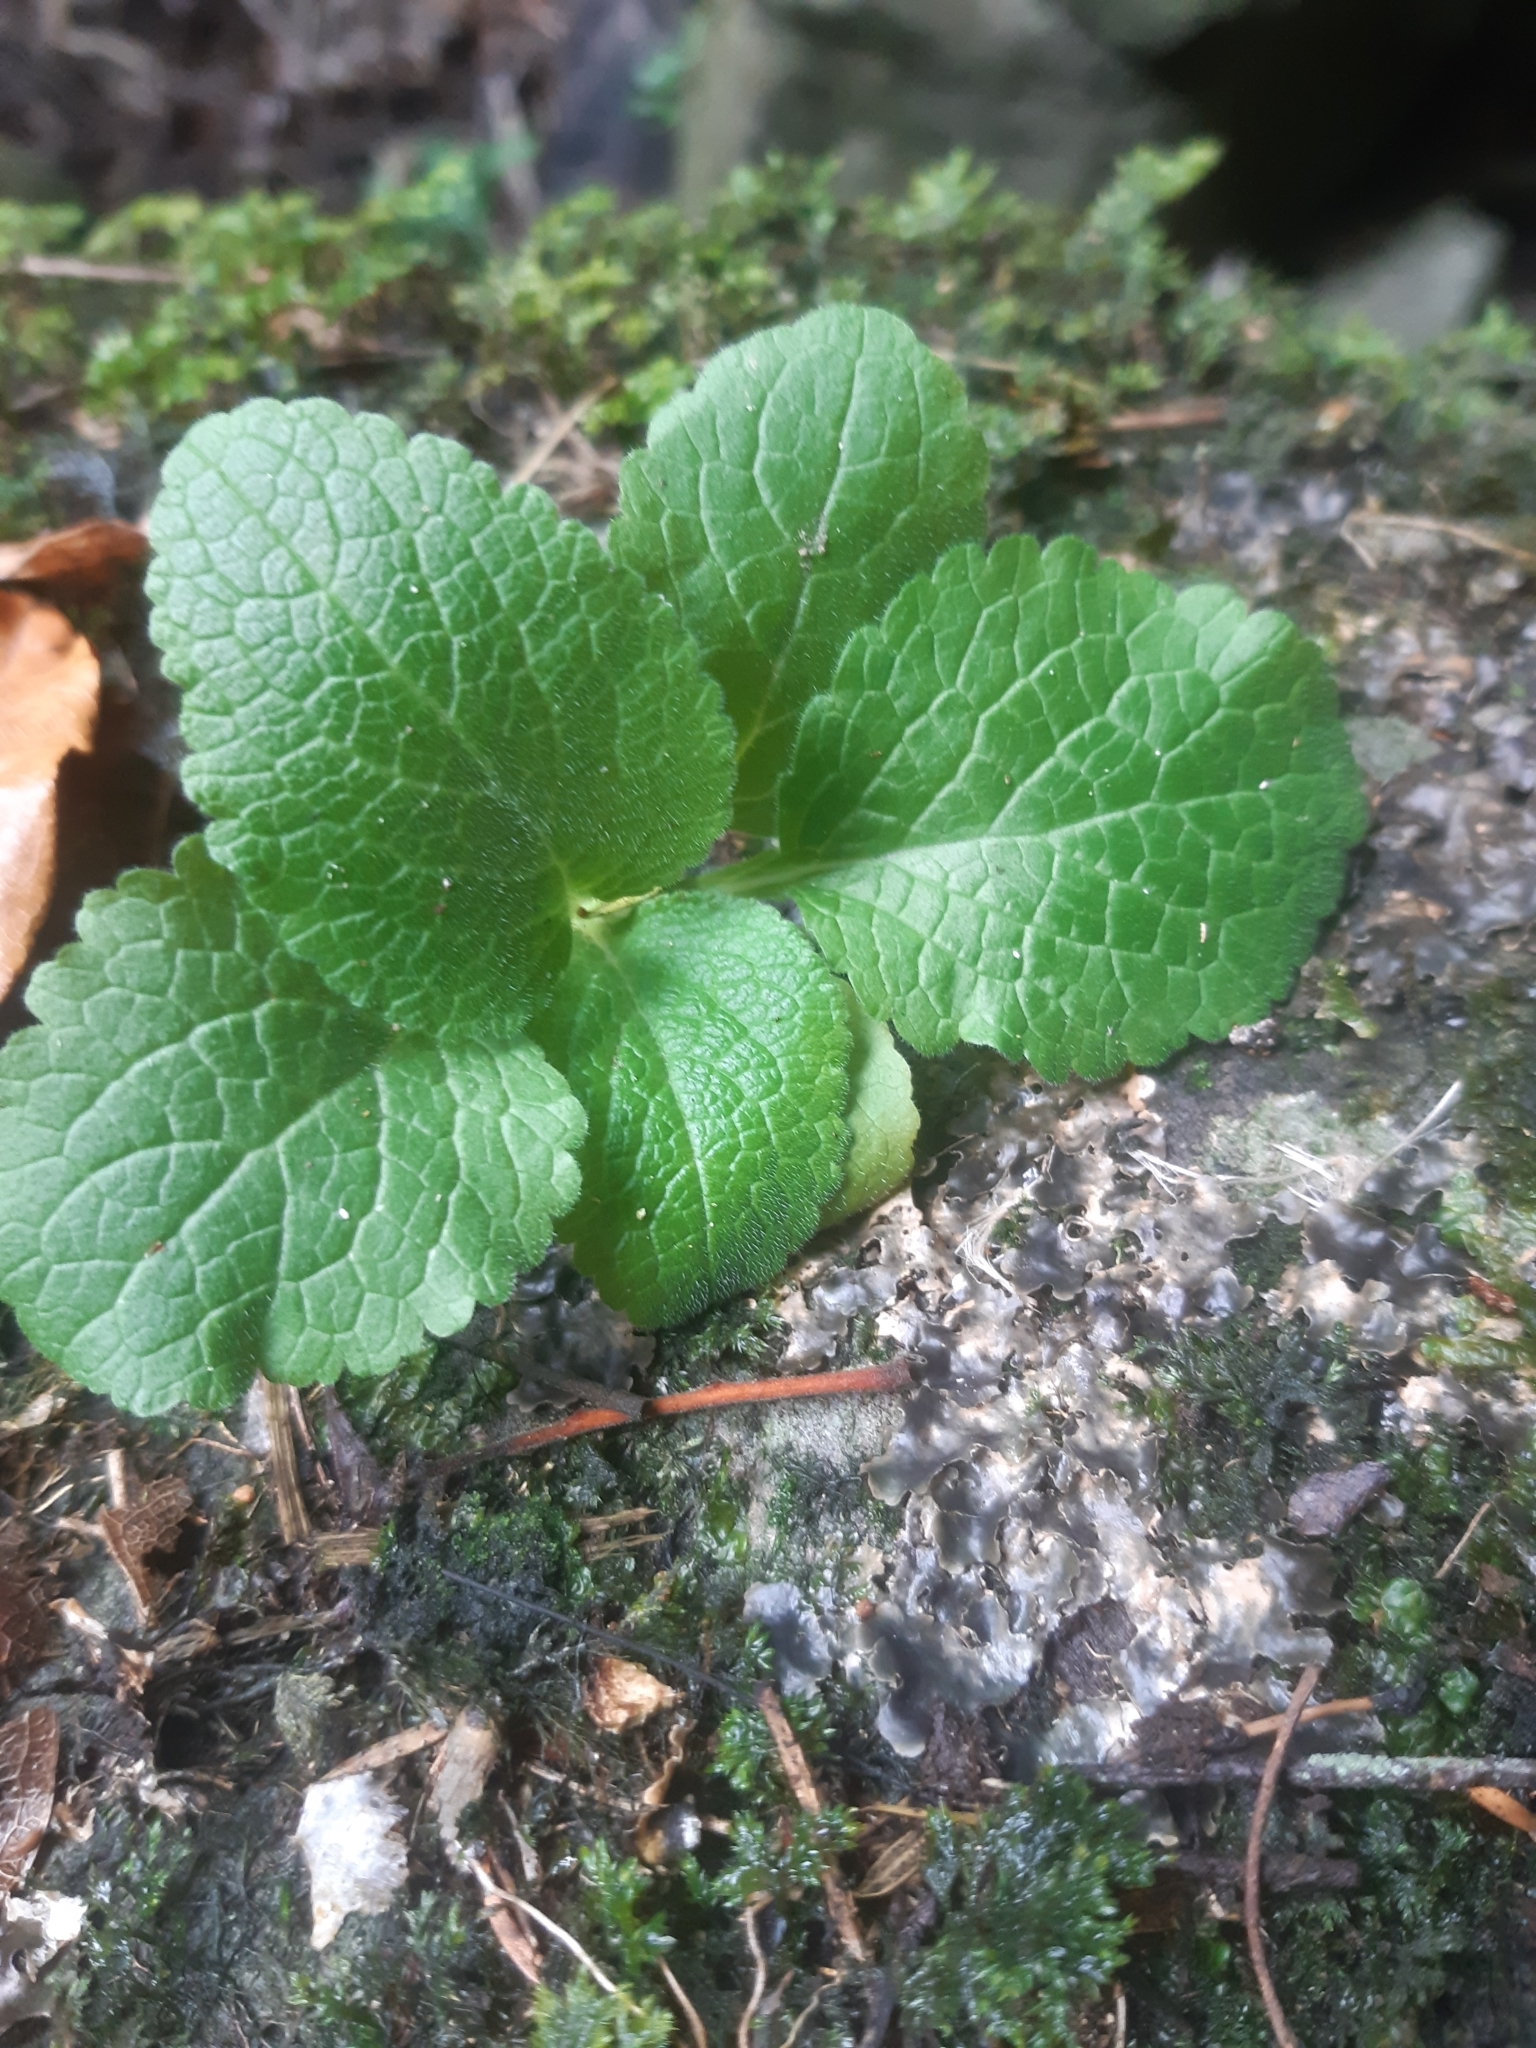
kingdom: Plantae
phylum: Tracheophyta
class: Magnoliopsida
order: Lamiales
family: Plantaginaceae
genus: Digitalis
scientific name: Digitalis purpurea
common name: Foxglove
